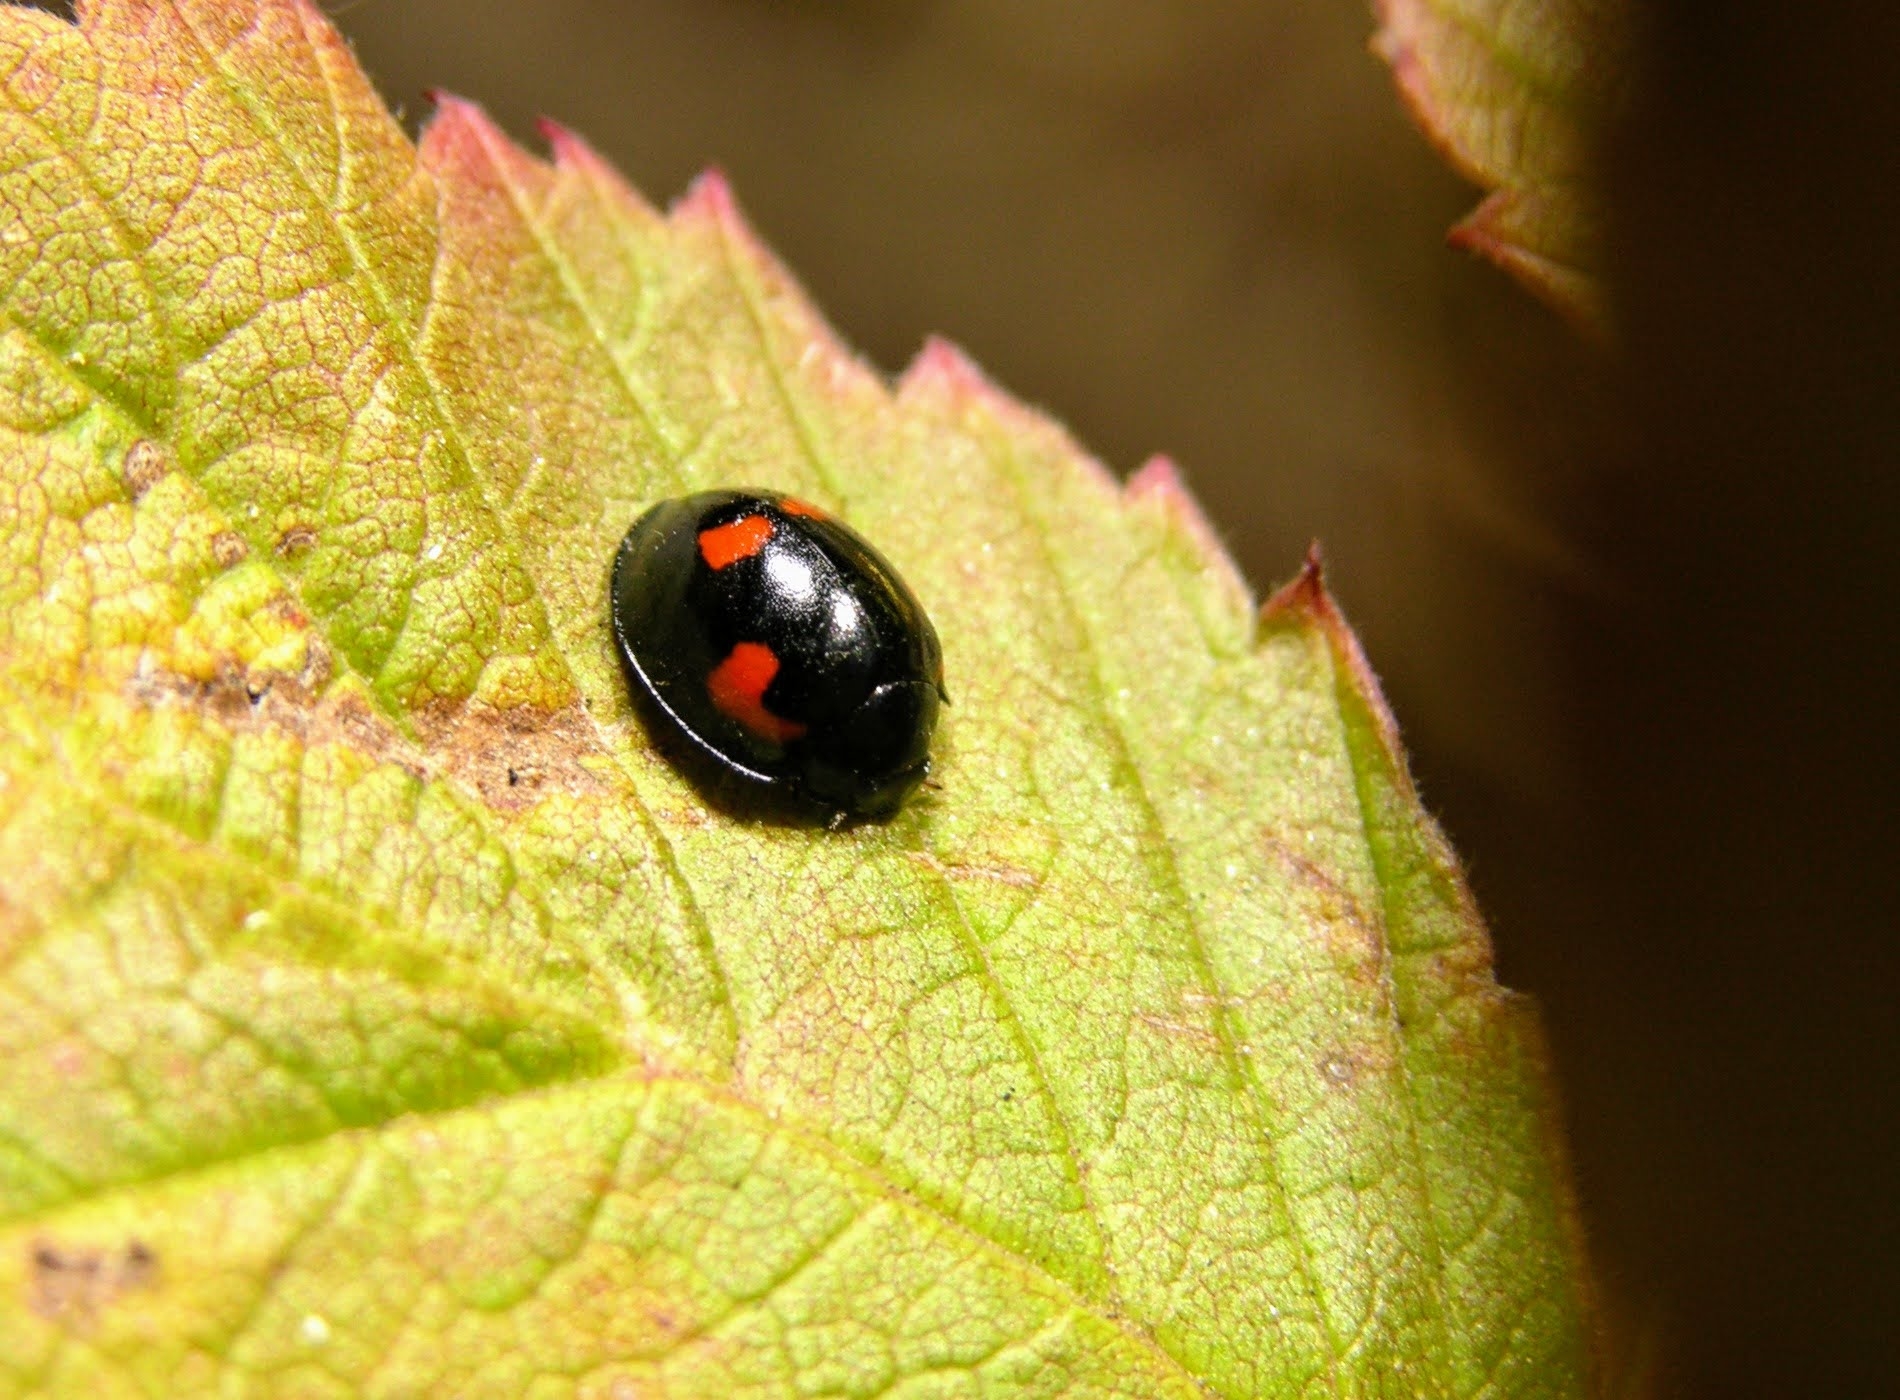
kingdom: Animalia
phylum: Arthropoda
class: Insecta
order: Coleoptera
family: Coccinellidae
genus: Brumus
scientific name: Brumus quadripustulatus
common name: Ladybird beetle
